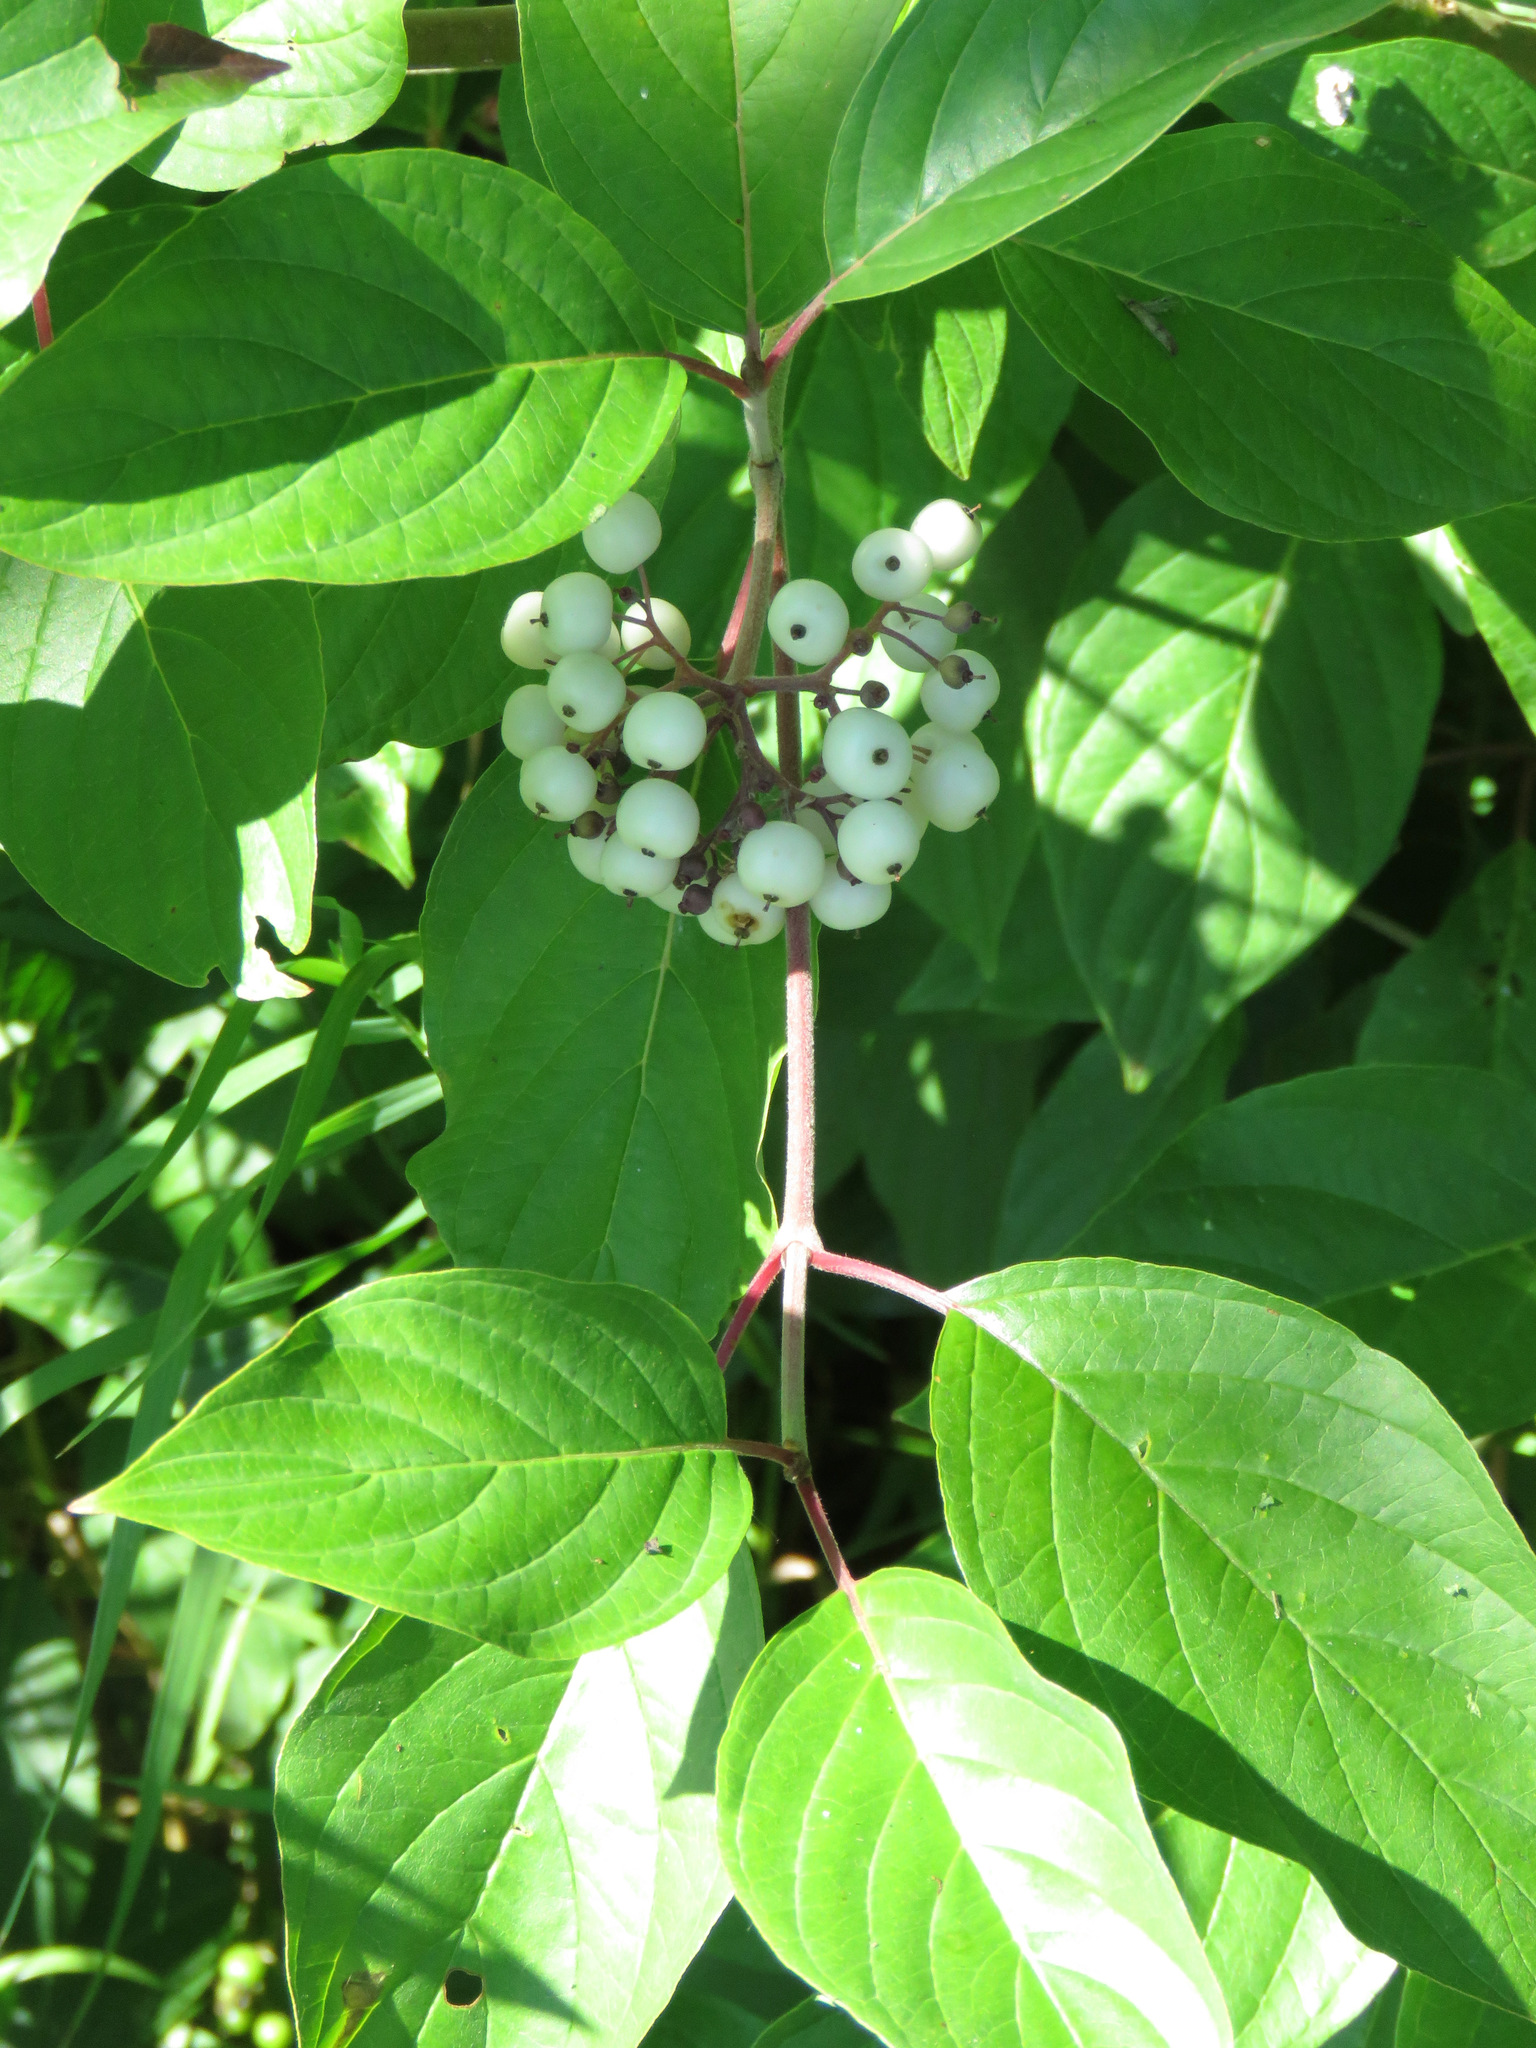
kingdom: Plantae
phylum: Tracheophyta
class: Magnoliopsida
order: Cornales
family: Cornaceae
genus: Cornus
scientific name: Cornus sericea
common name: Red-osier dogwood
